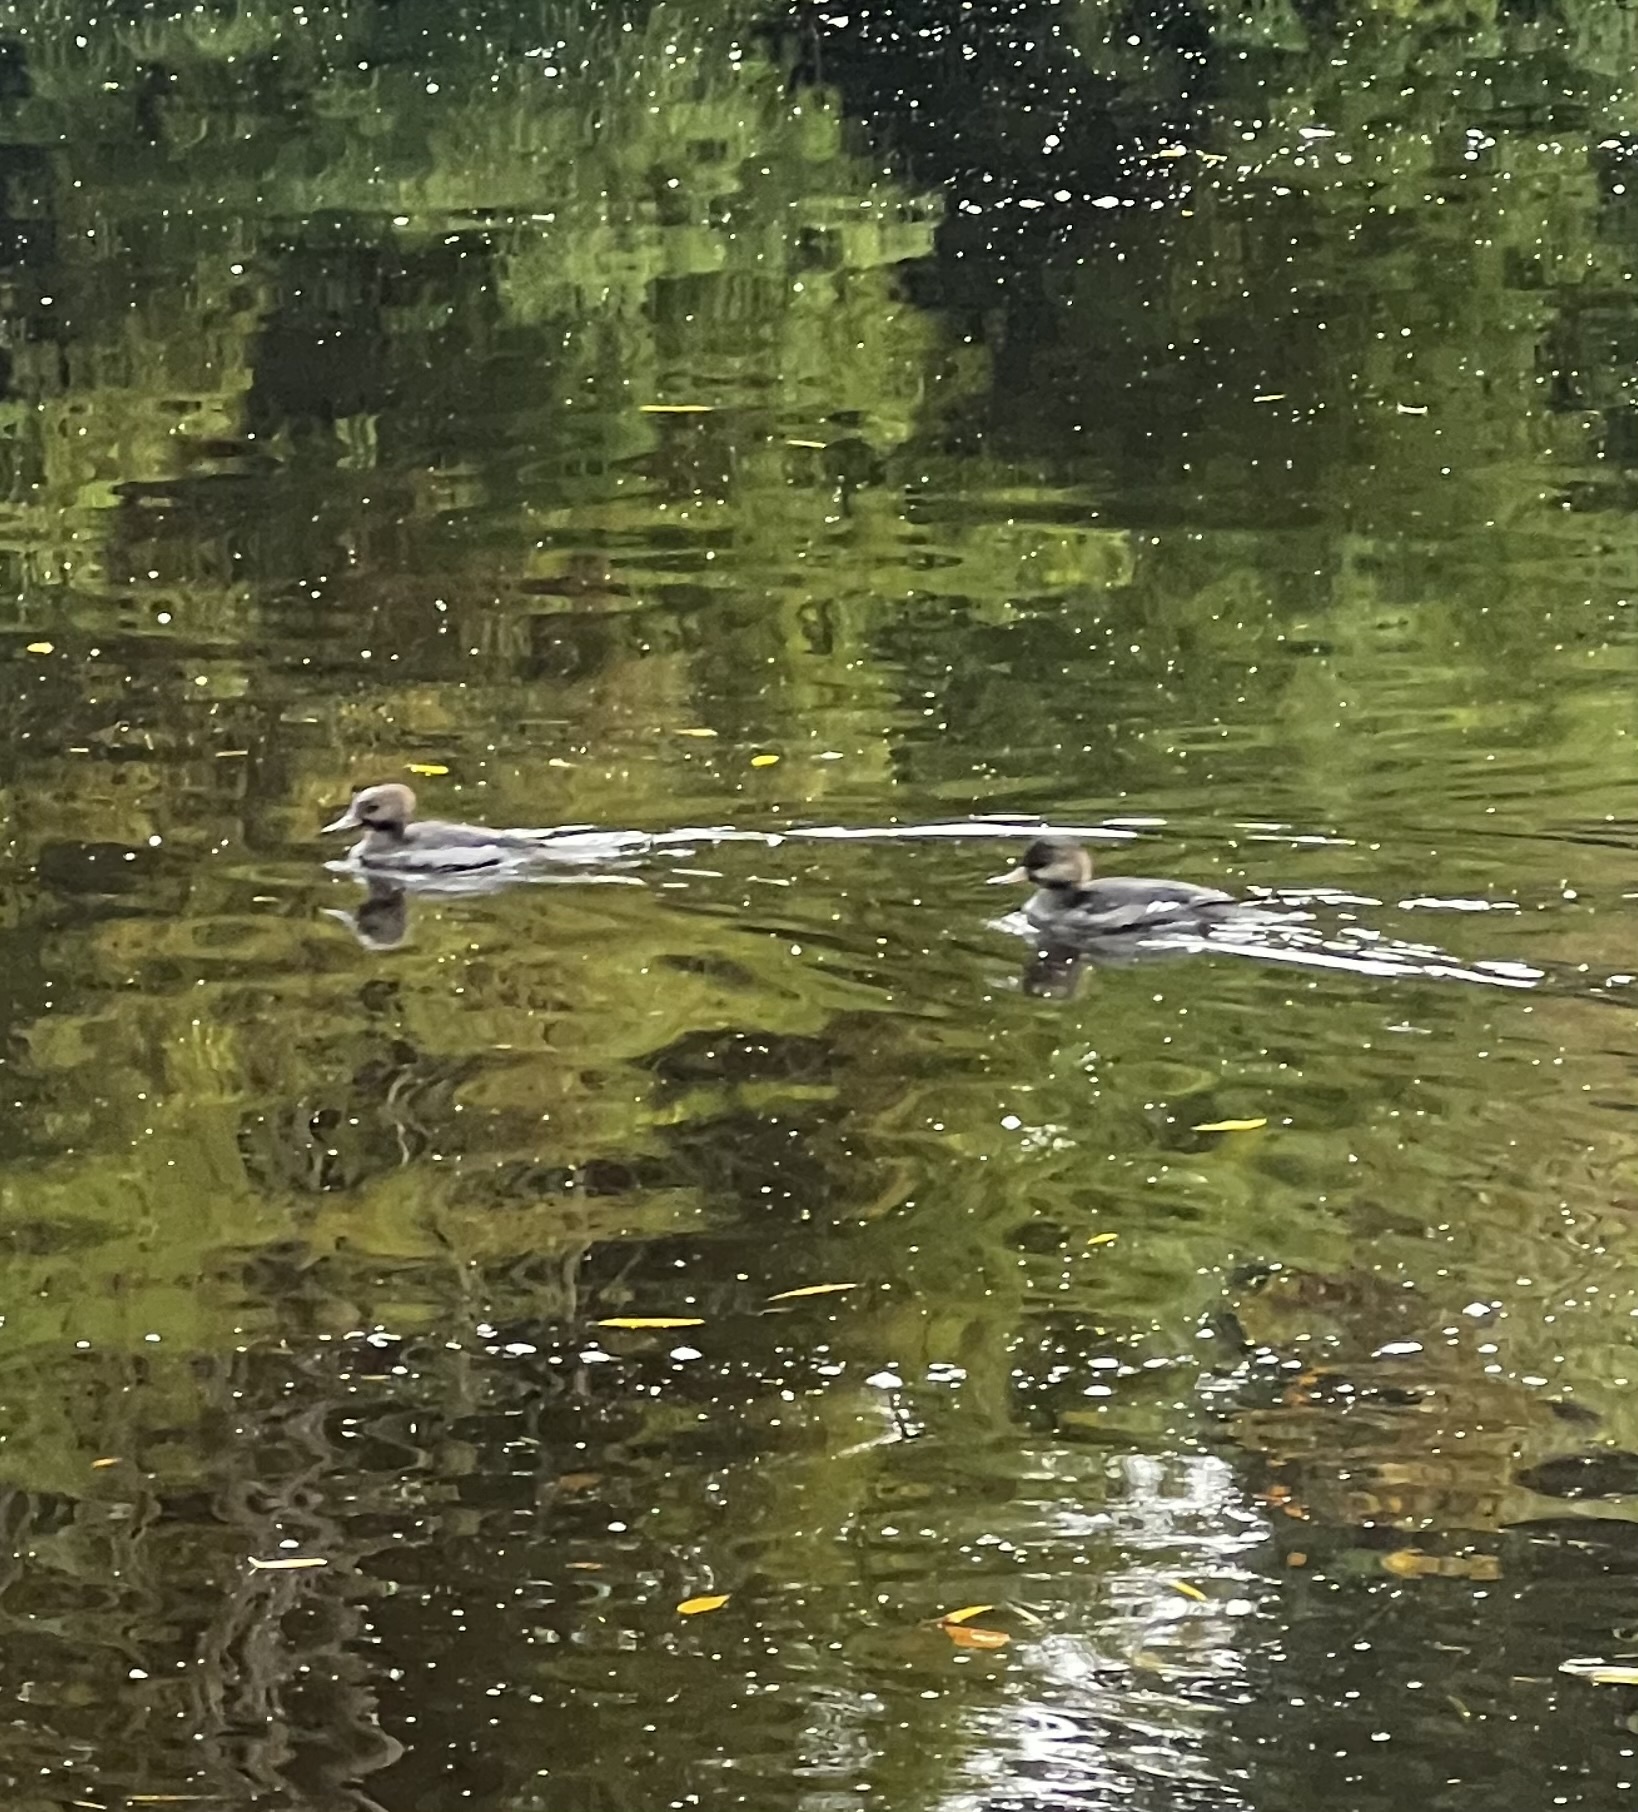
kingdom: Animalia
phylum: Chordata
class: Aves
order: Anseriformes
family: Anatidae
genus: Lophodytes
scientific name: Lophodytes cucullatus
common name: Hooded merganser
